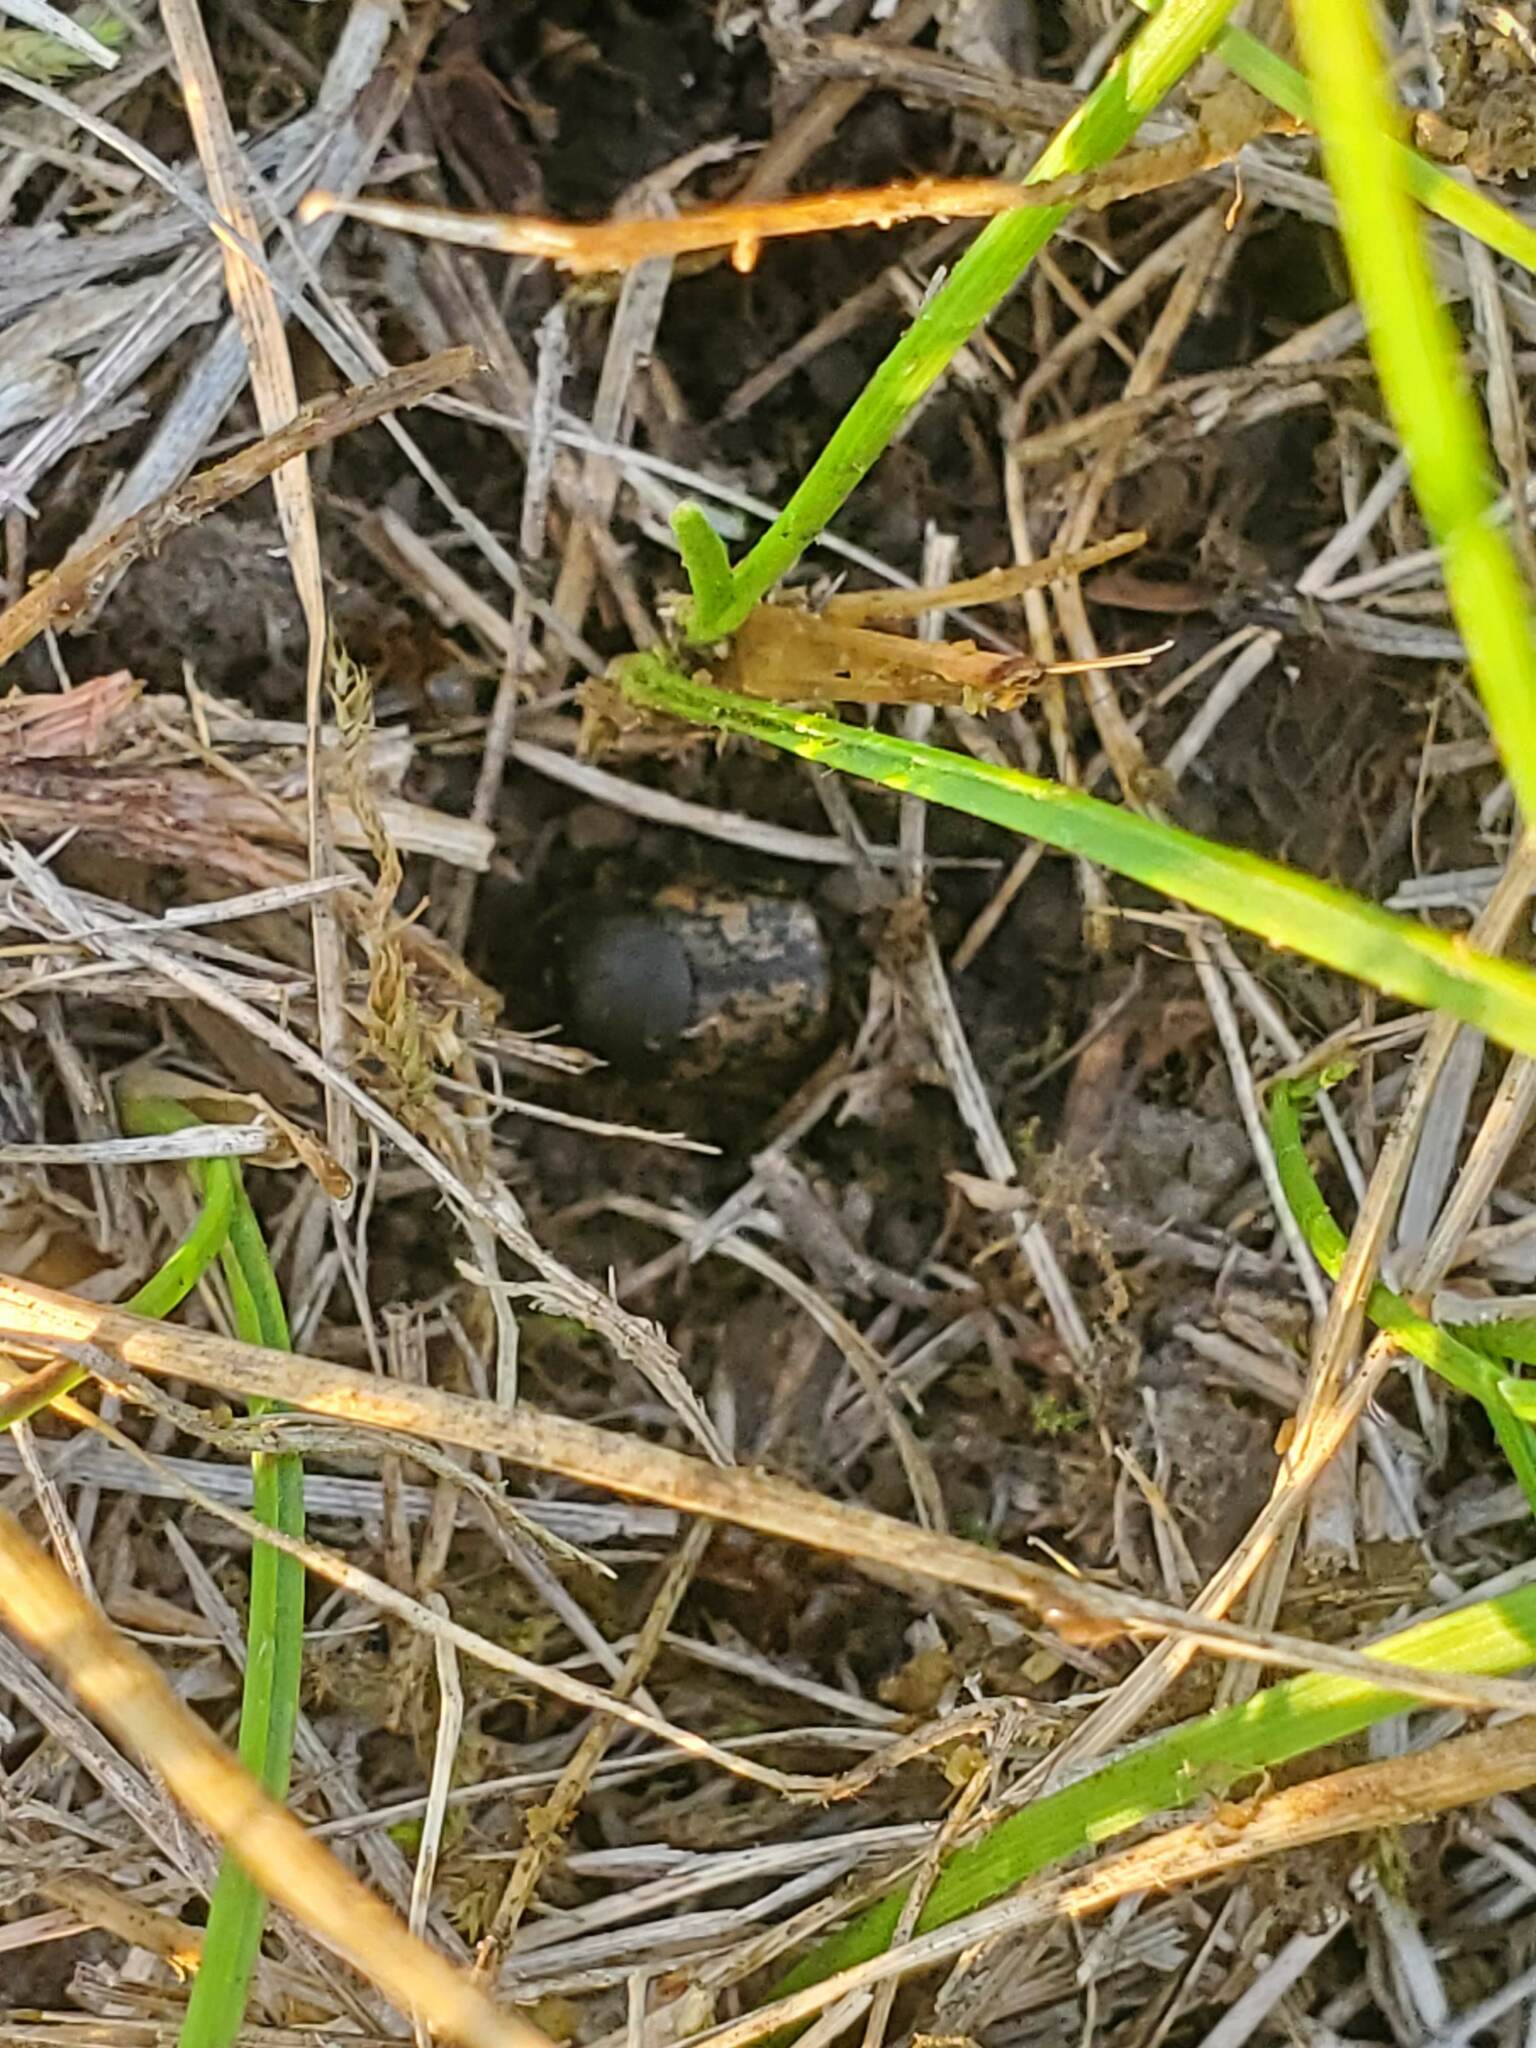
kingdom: Animalia
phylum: Arthropoda
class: Insecta
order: Coleoptera
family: Scarabaeidae
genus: Onthophagus
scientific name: Onthophagus nuchicornis
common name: Mottled dung beetle
